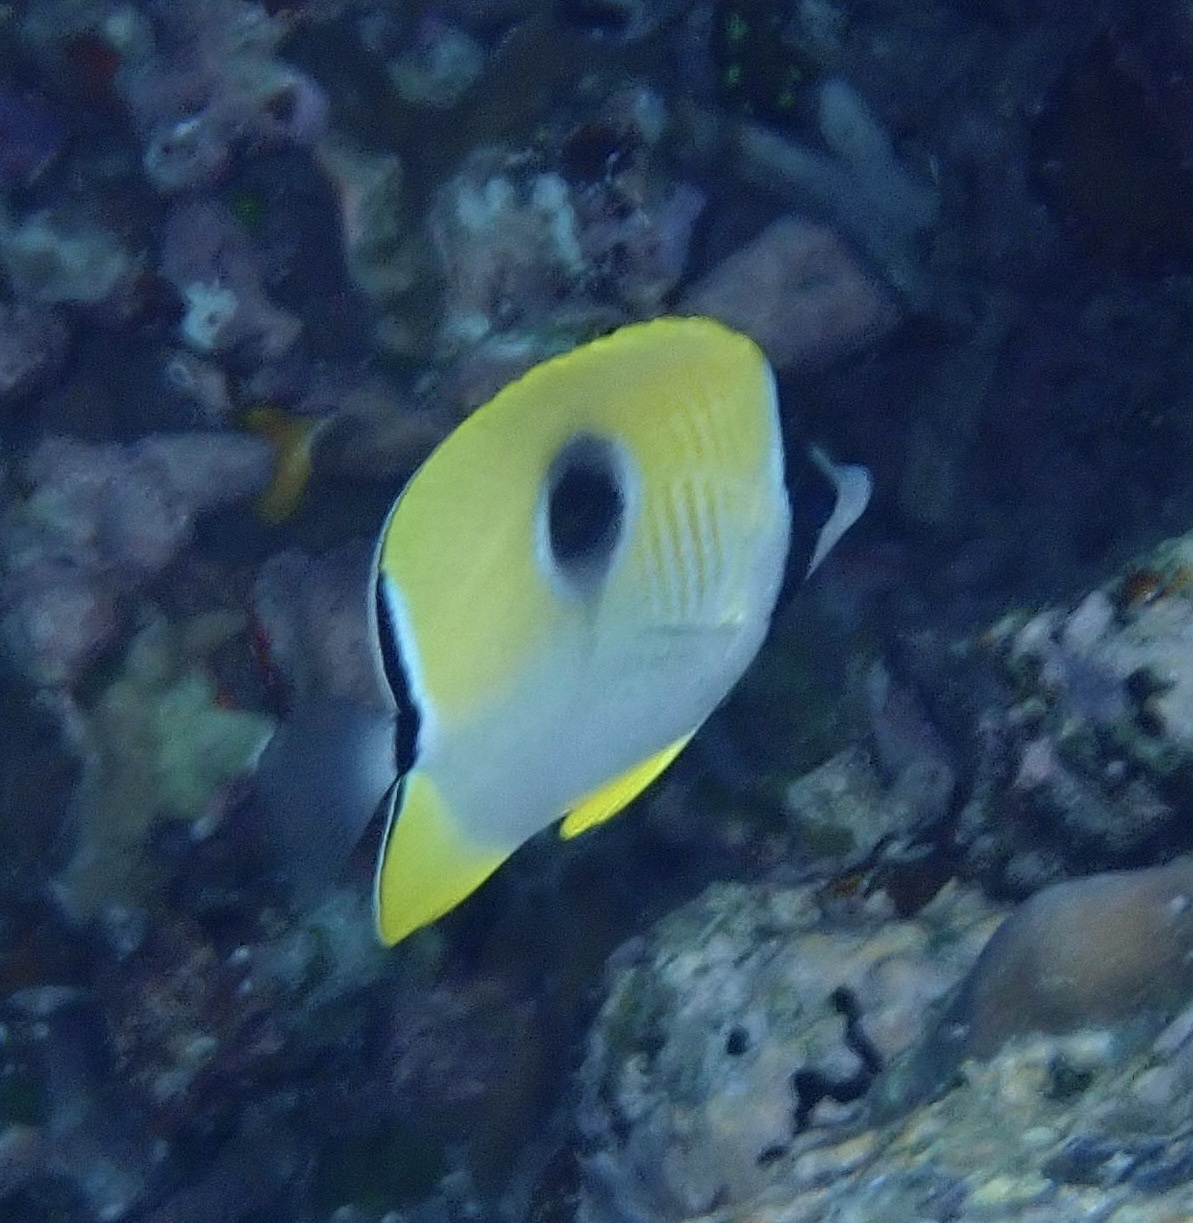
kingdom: Animalia
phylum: Chordata
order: Perciformes
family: Chaetodontidae
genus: Chaetodon
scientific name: Chaetodon unimaculatus
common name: Teardrop butterflyfish
